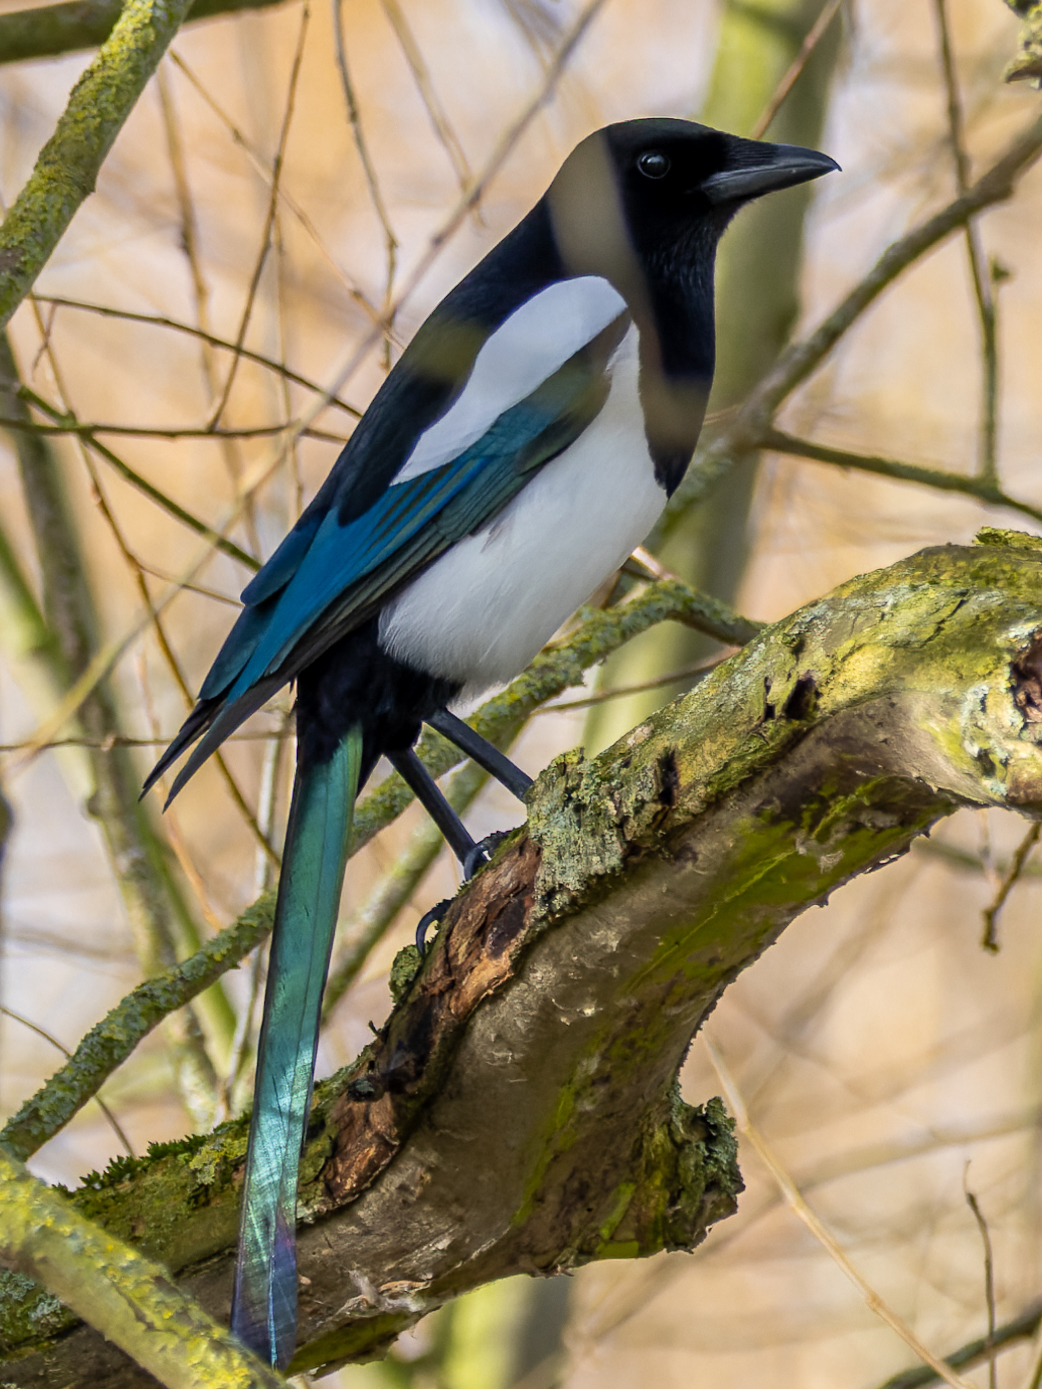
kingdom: Animalia
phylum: Chordata
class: Aves
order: Passeriformes
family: Corvidae
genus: Pica
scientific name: Pica pica
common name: Eurasian magpie
